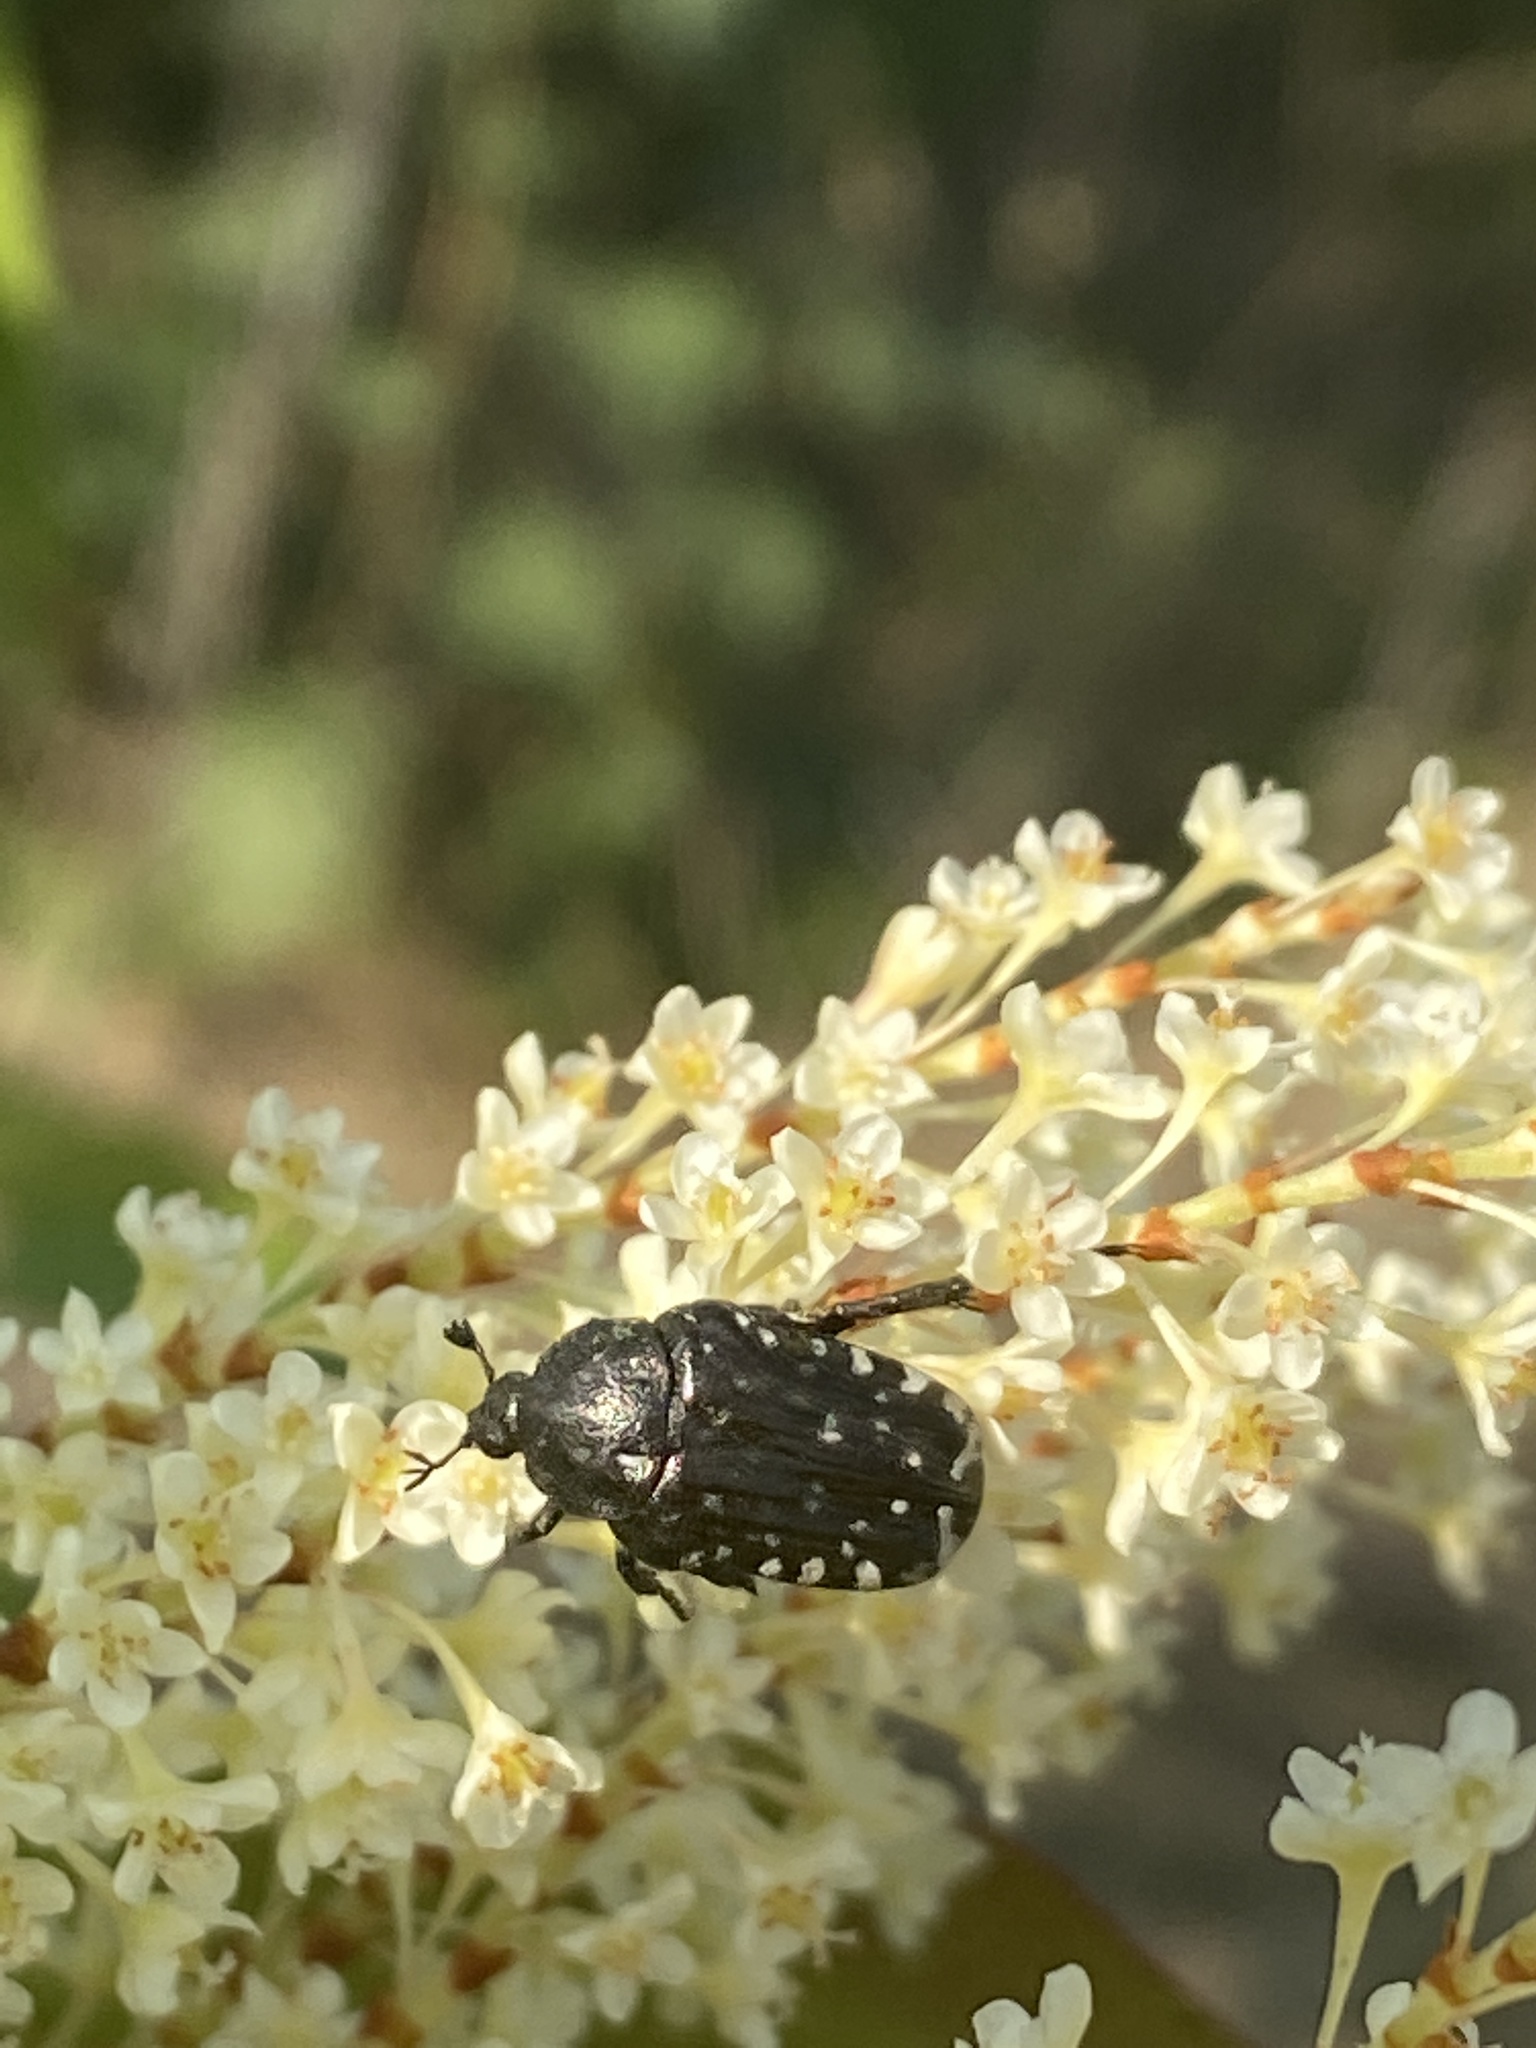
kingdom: Animalia
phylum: Arthropoda
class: Insecta
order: Coleoptera
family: Scarabaeidae
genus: Oxythyrea
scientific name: Oxythyrea funesta
